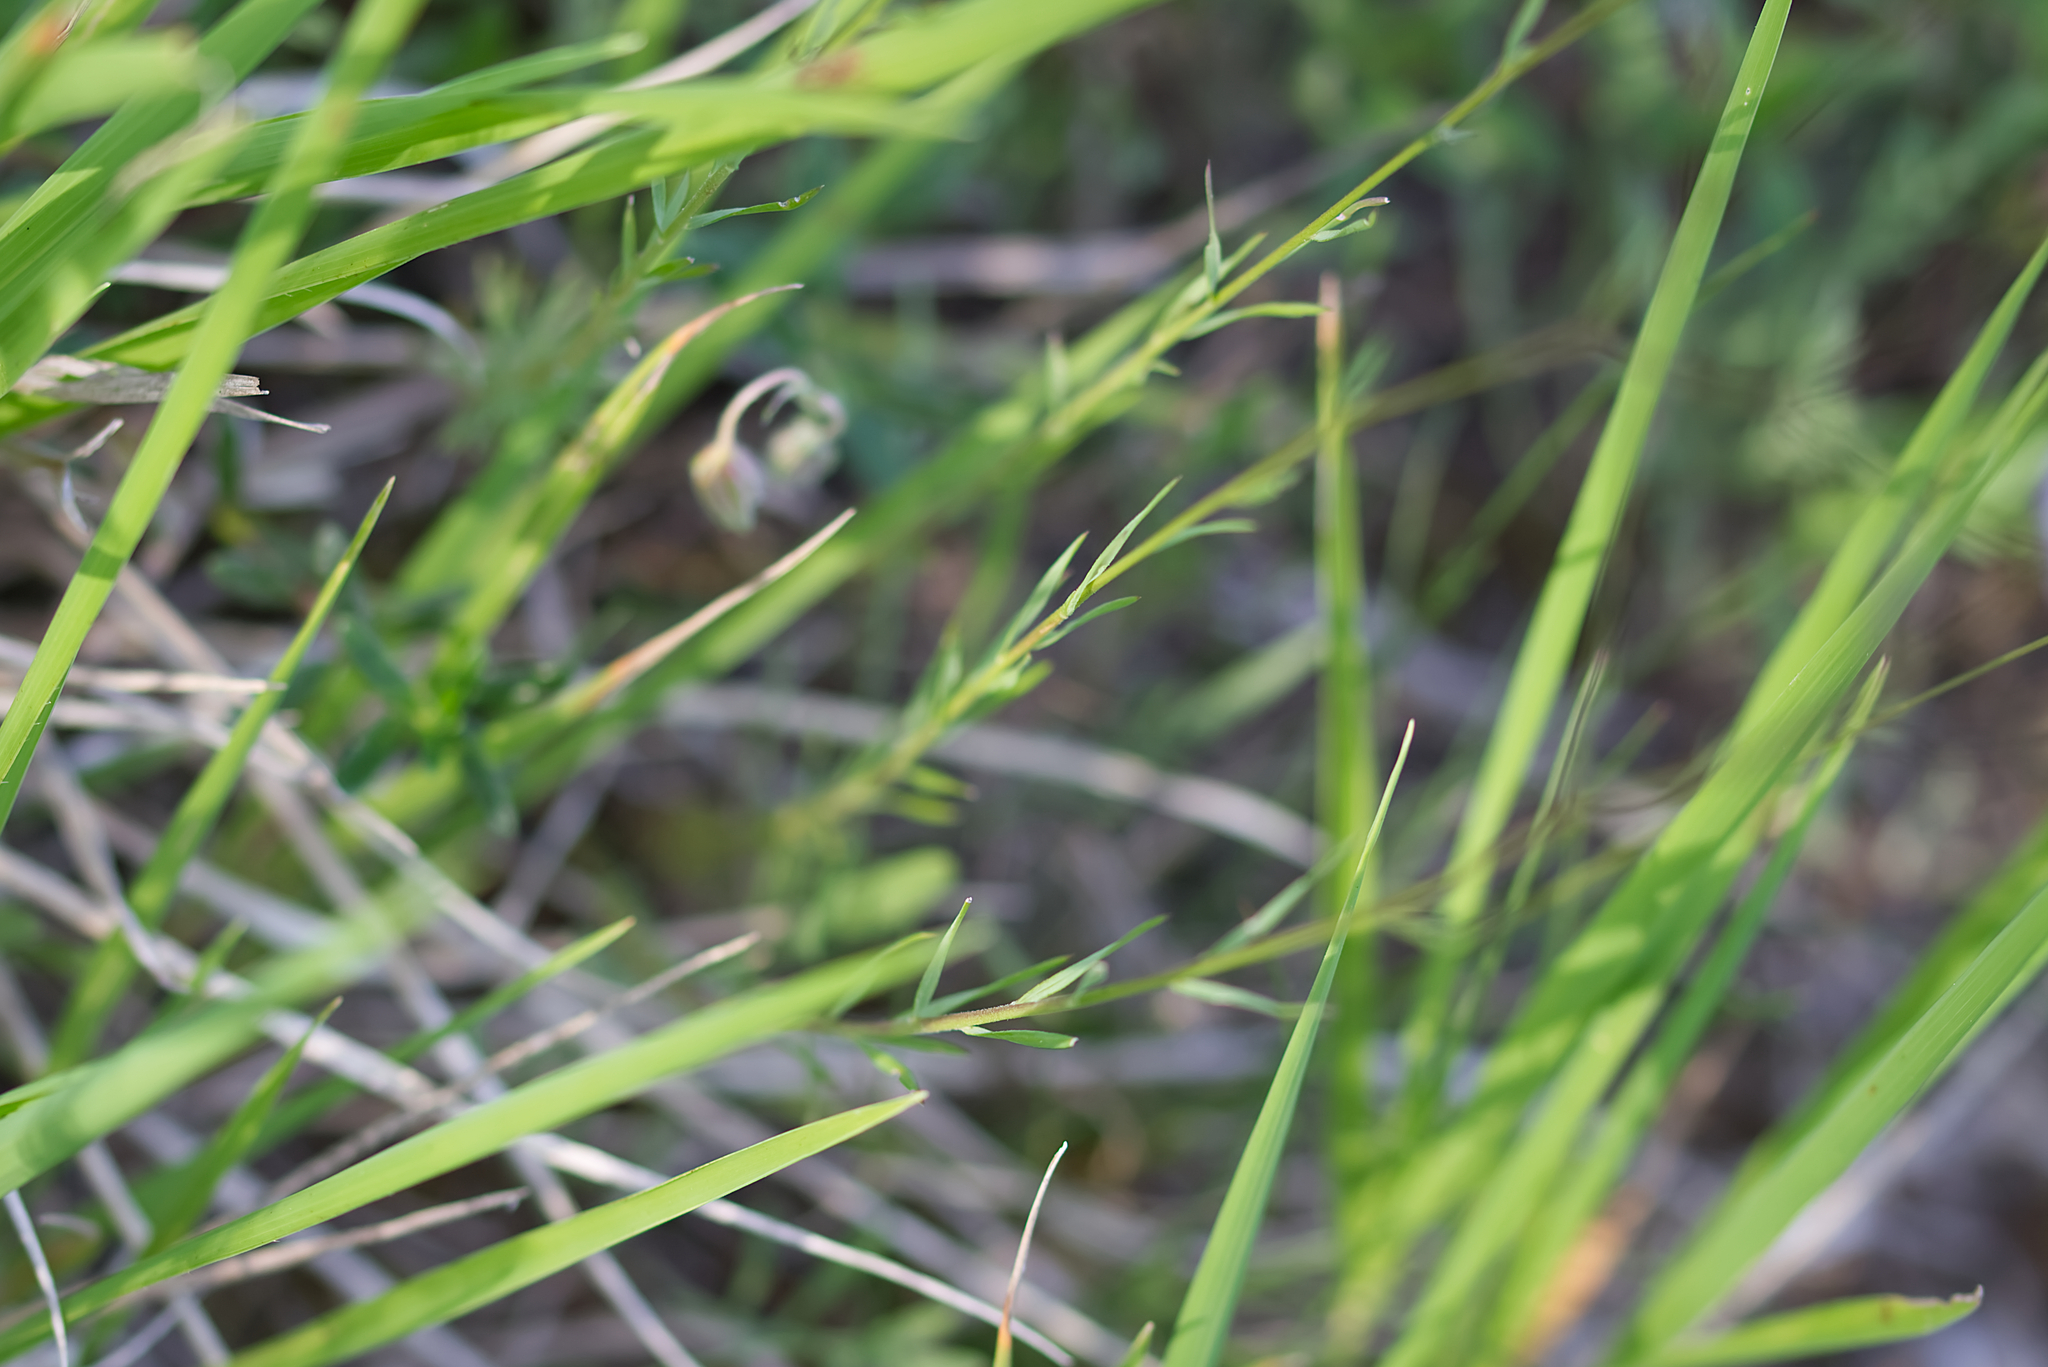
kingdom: Plantae
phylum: Tracheophyta
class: Magnoliopsida
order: Malpighiales
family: Linaceae
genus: Linum
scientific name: Linum tenuifolium
